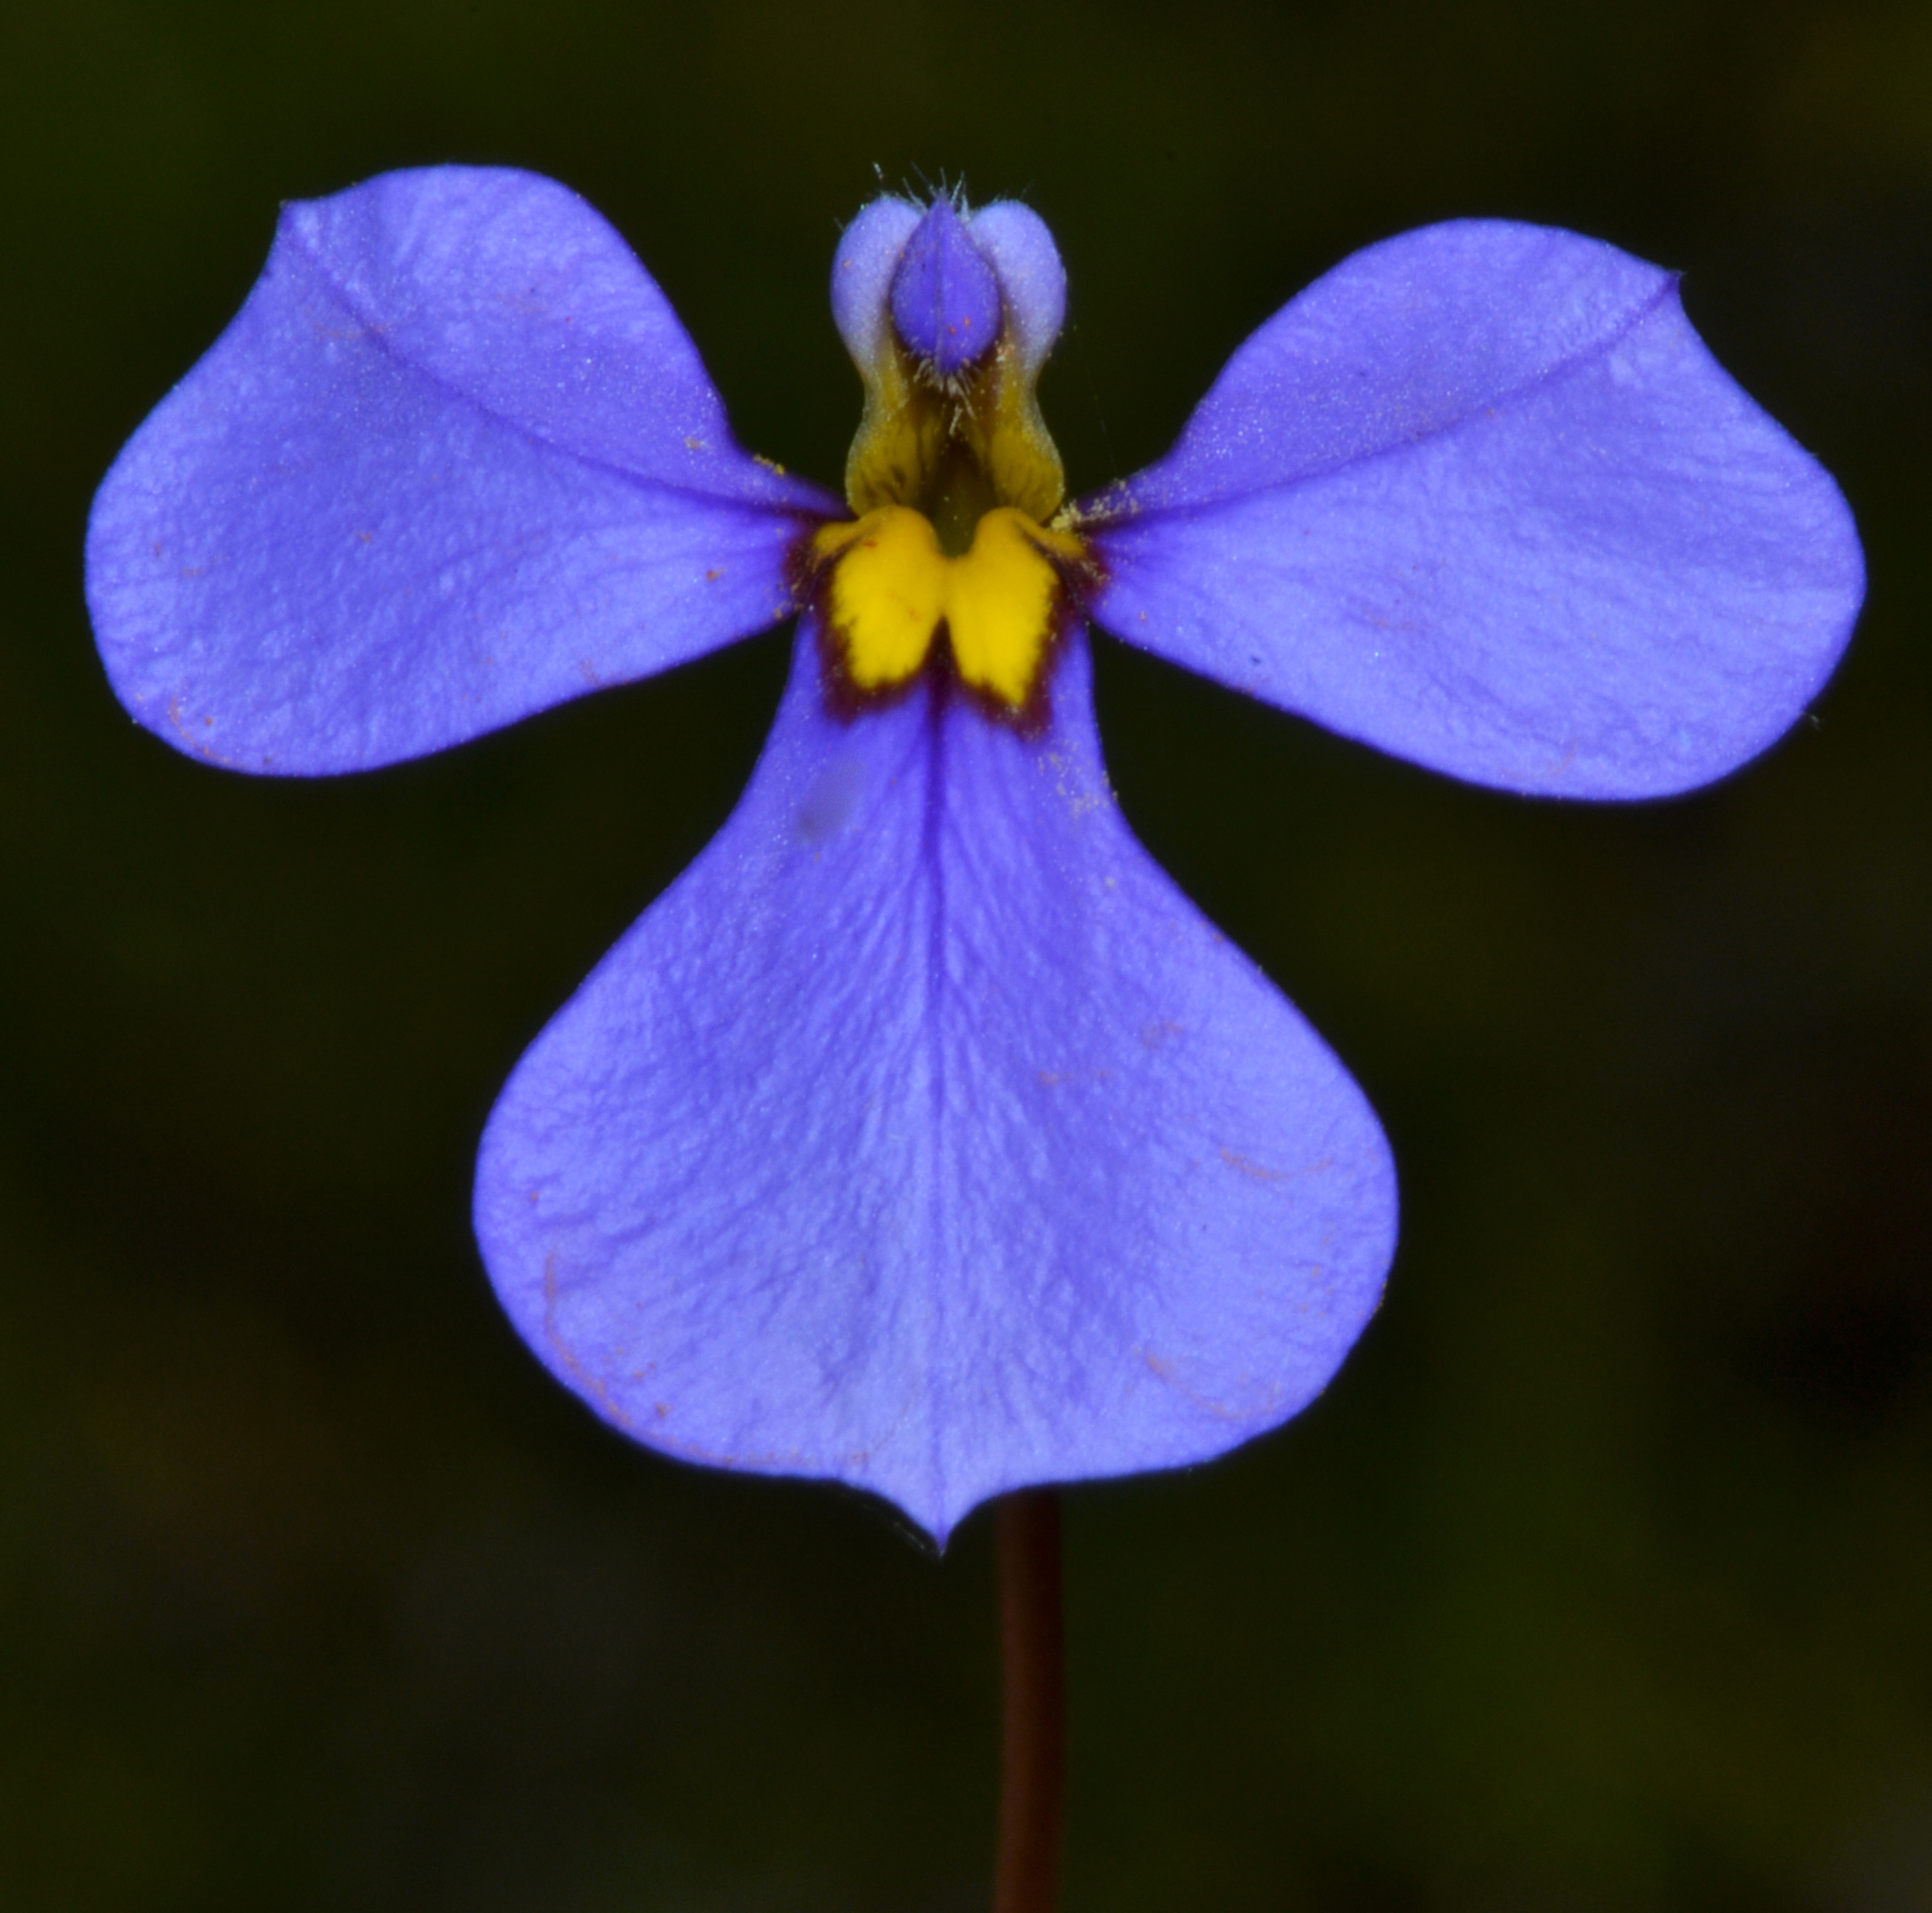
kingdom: Plantae
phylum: Tracheophyta
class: Magnoliopsida
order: Asterales
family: Campanulaceae
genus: Lobelia
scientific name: Lobelia rhytidosperma
